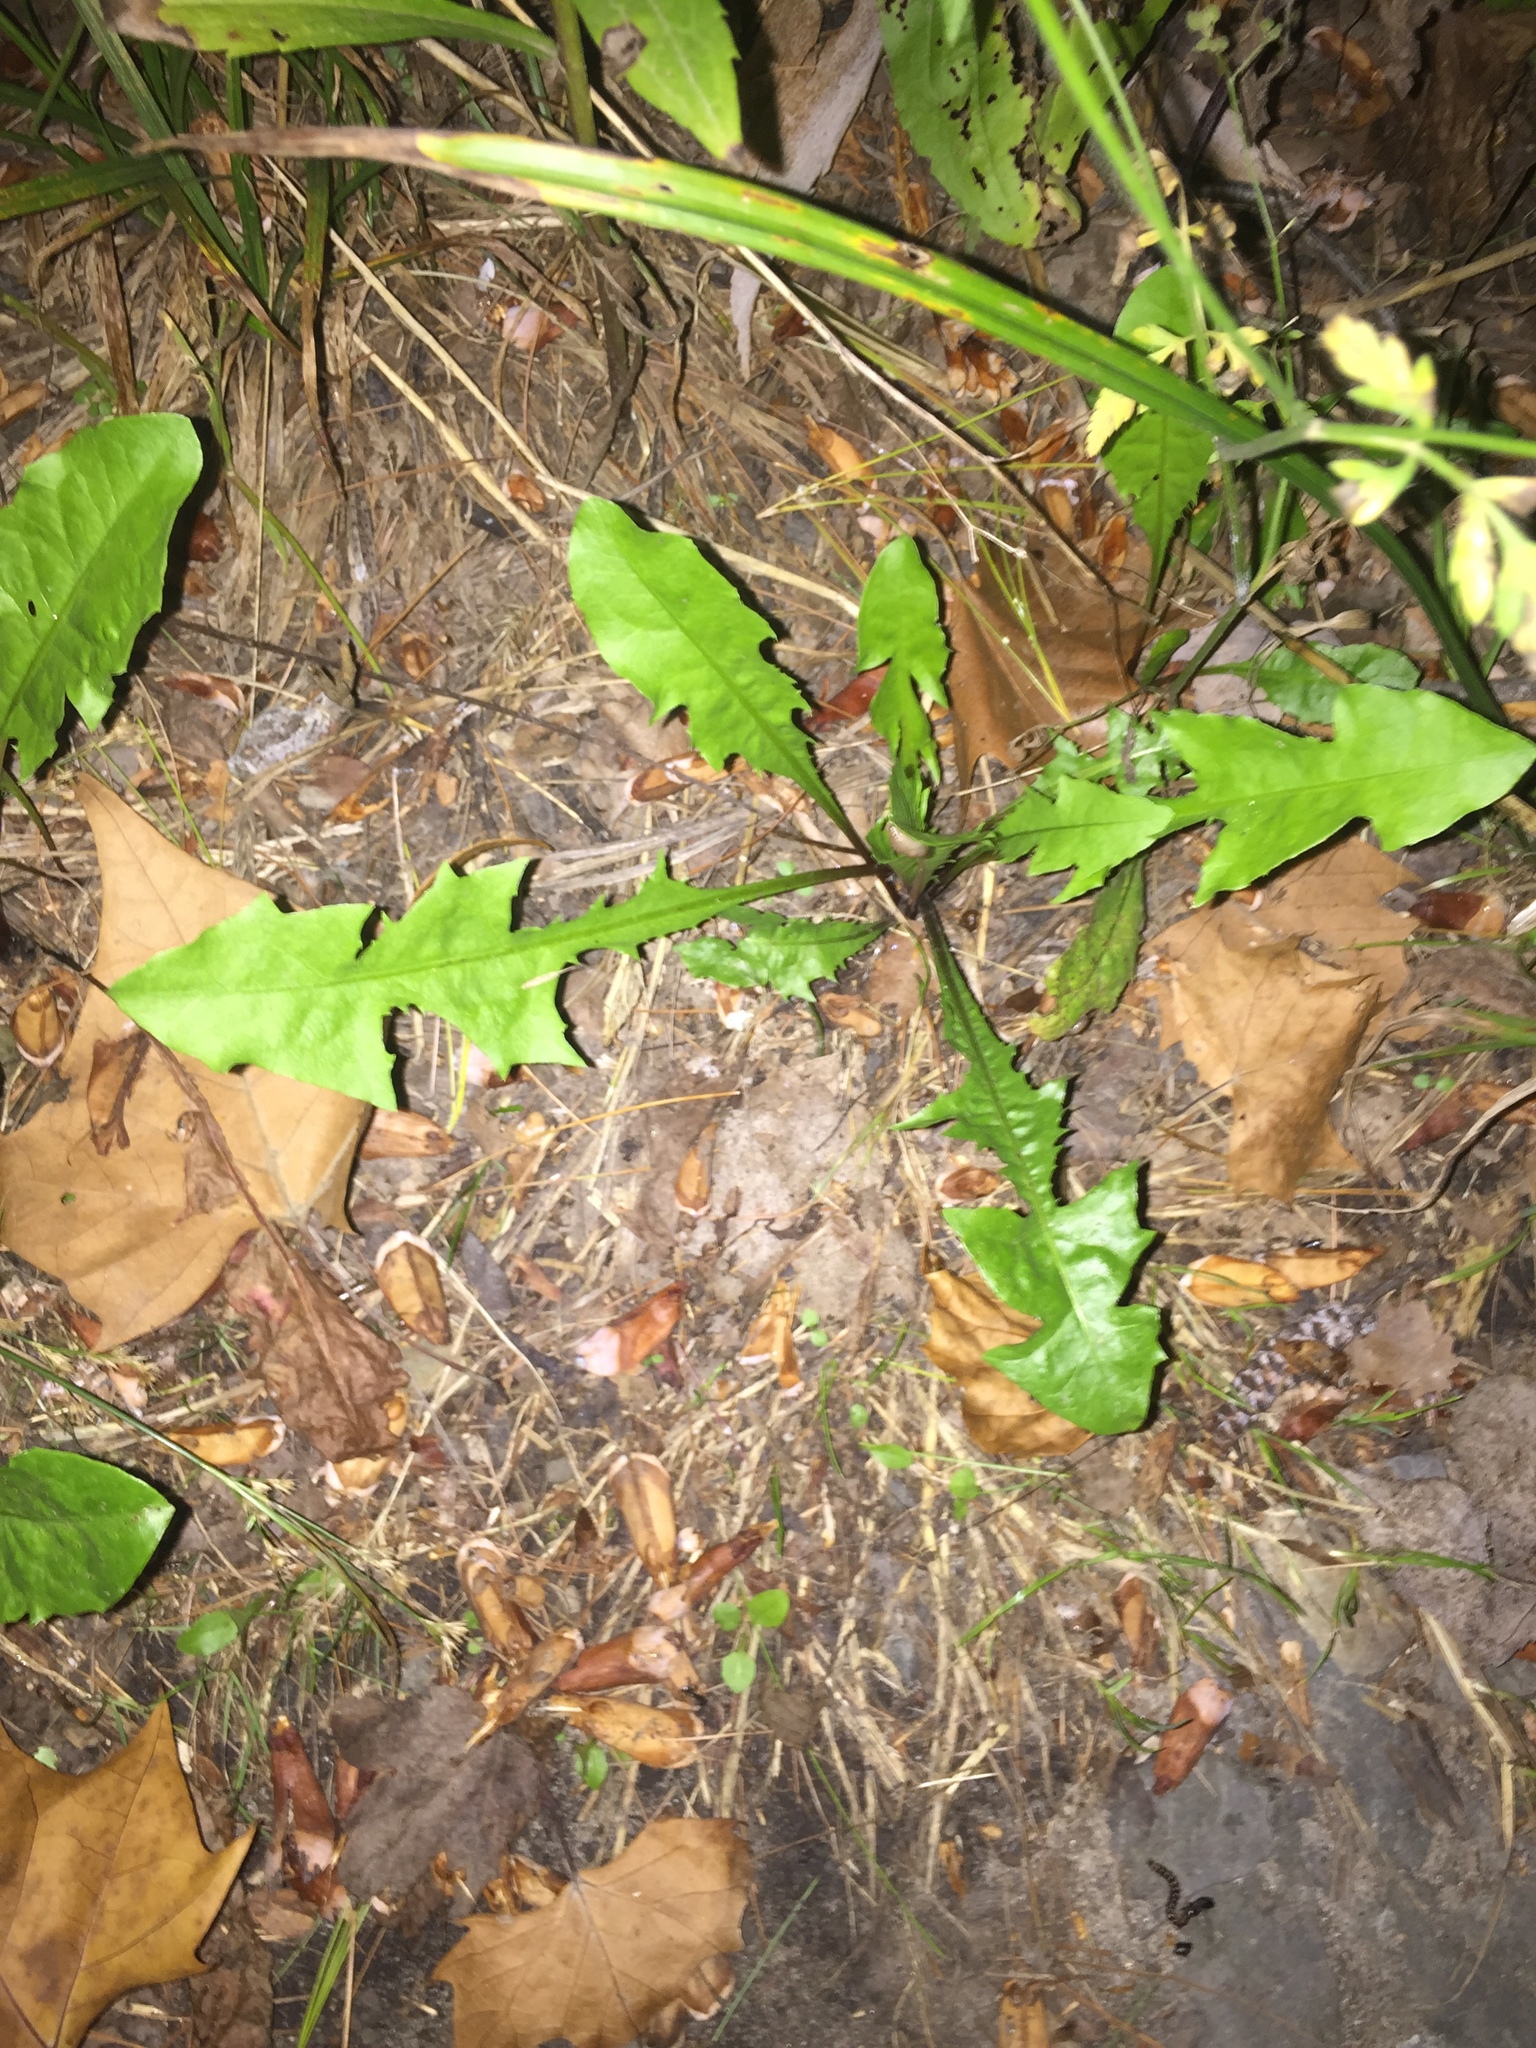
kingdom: Plantae
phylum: Tracheophyta
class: Magnoliopsida
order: Asterales
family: Asteraceae
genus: Taraxacum
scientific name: Taraxacum officinale
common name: Common dandelion
